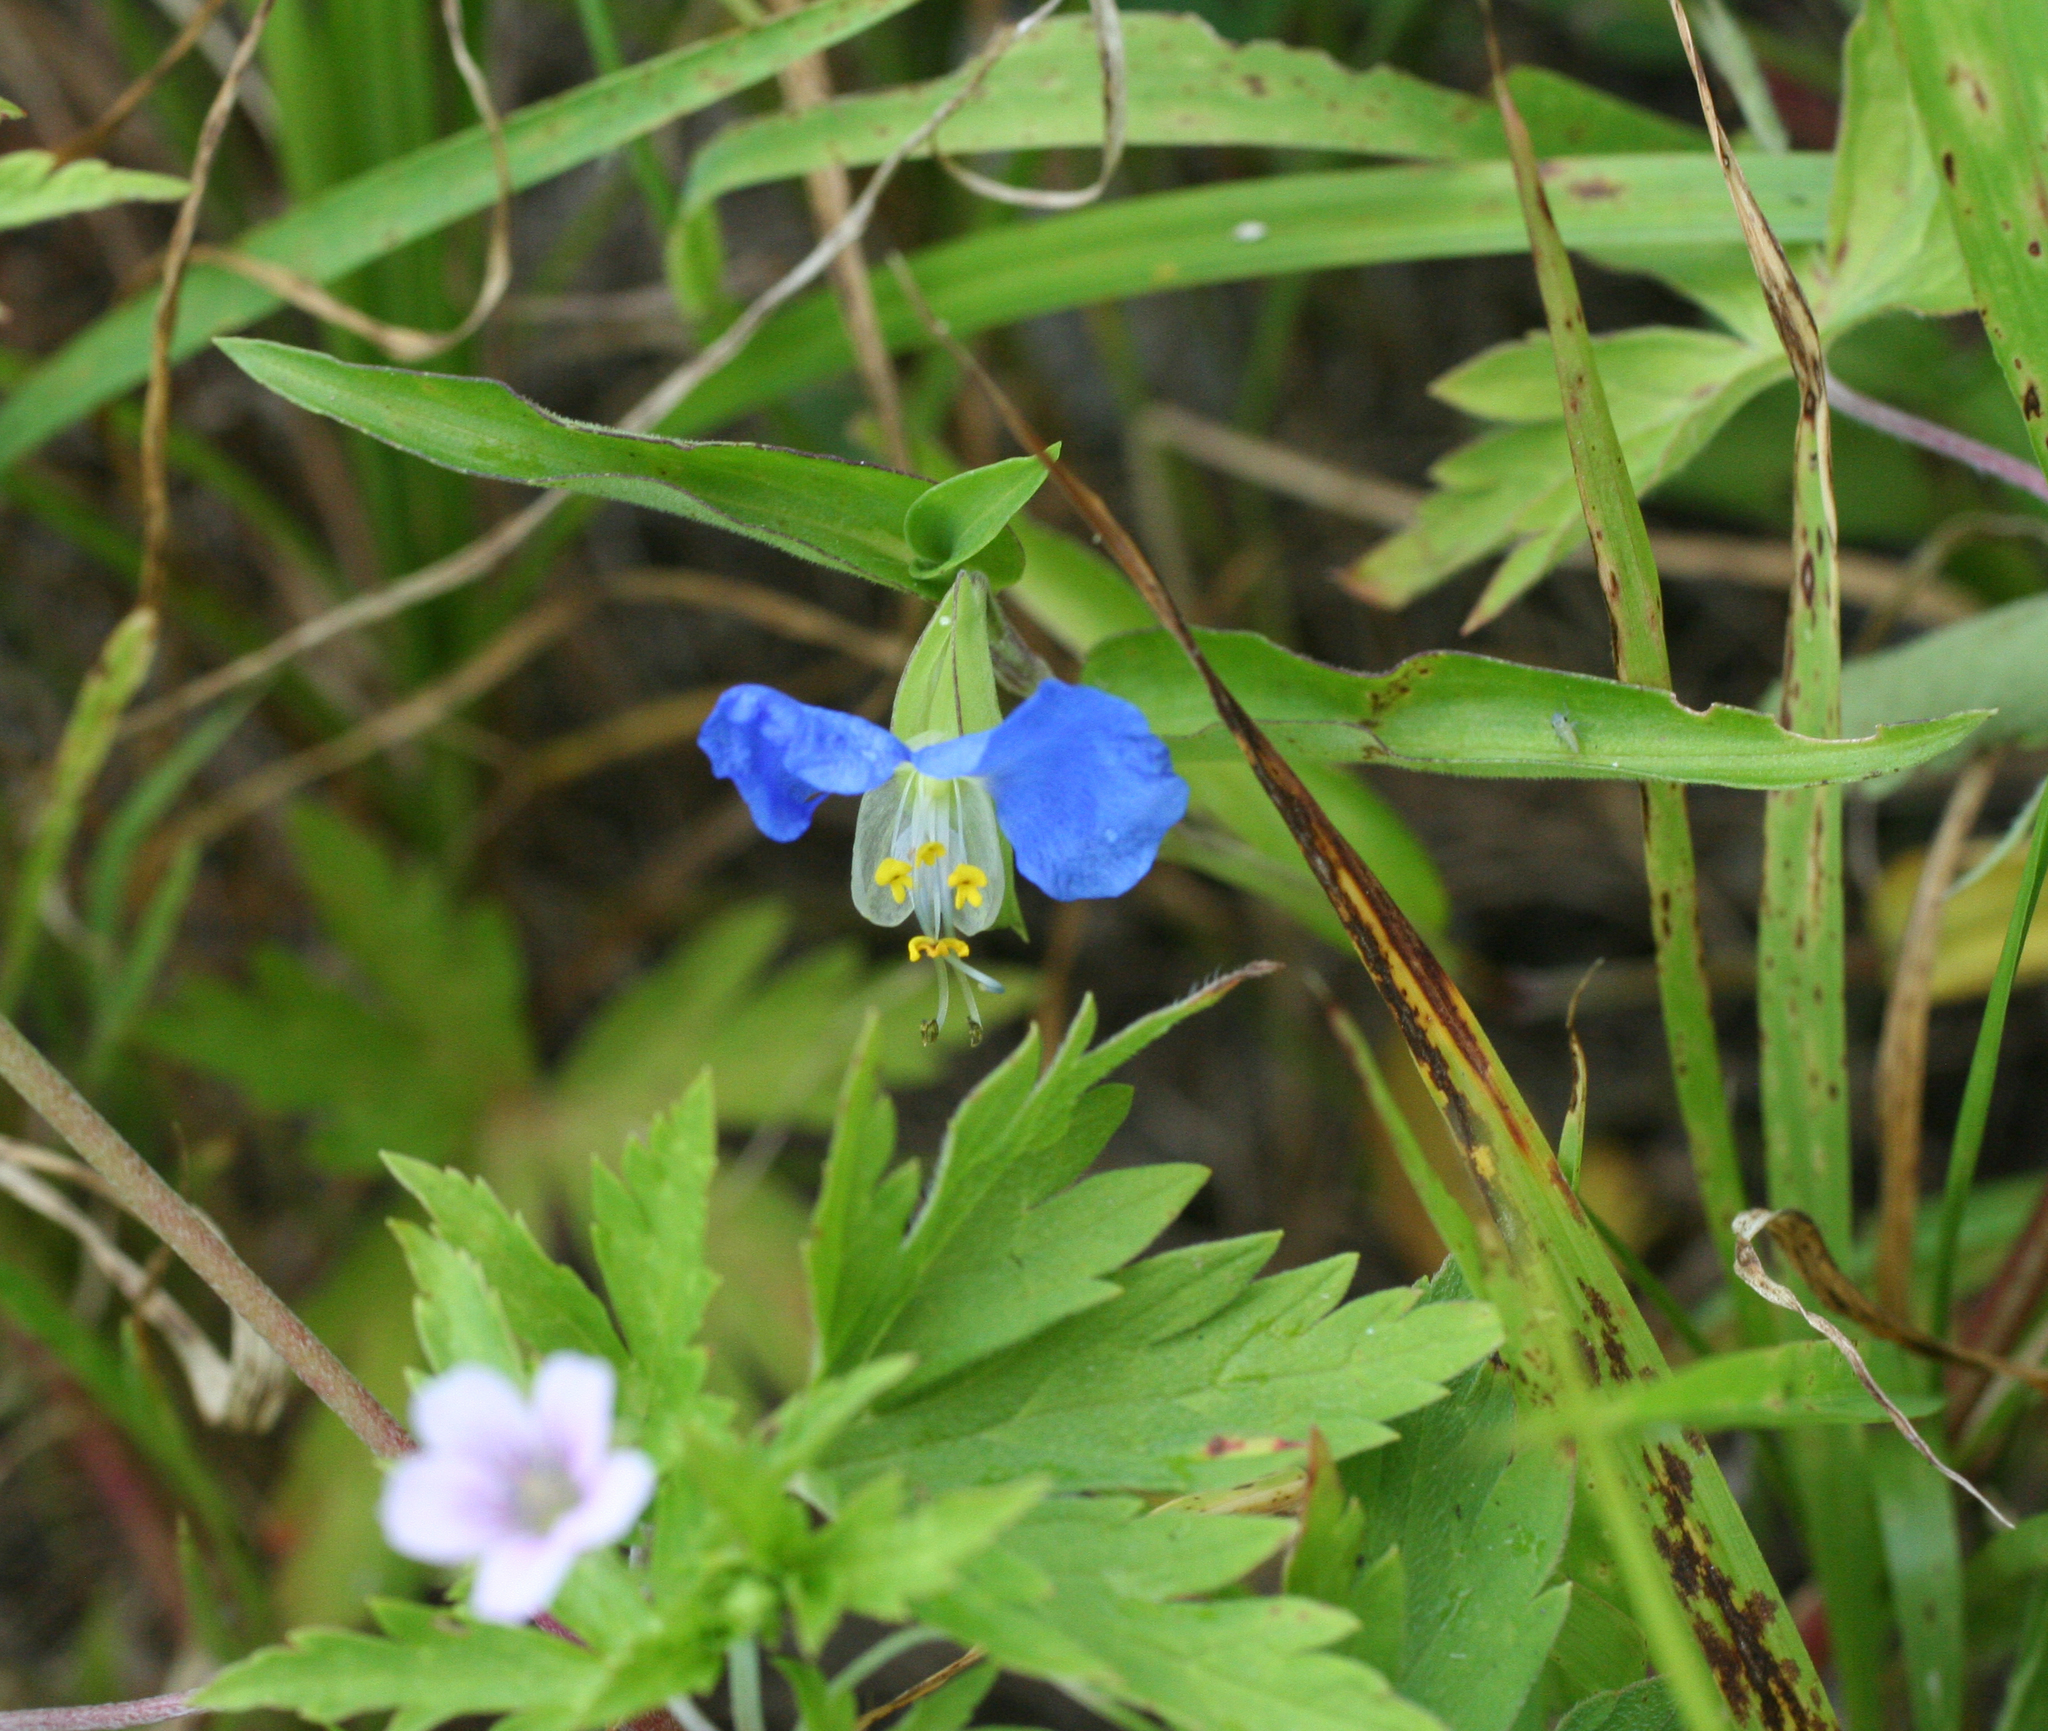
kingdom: Plantae
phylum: Tracheophyta
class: Liliopsida
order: Commelinales
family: Commelinaceae
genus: Commelina
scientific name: Commelina communis
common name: Asiatic dayflower
